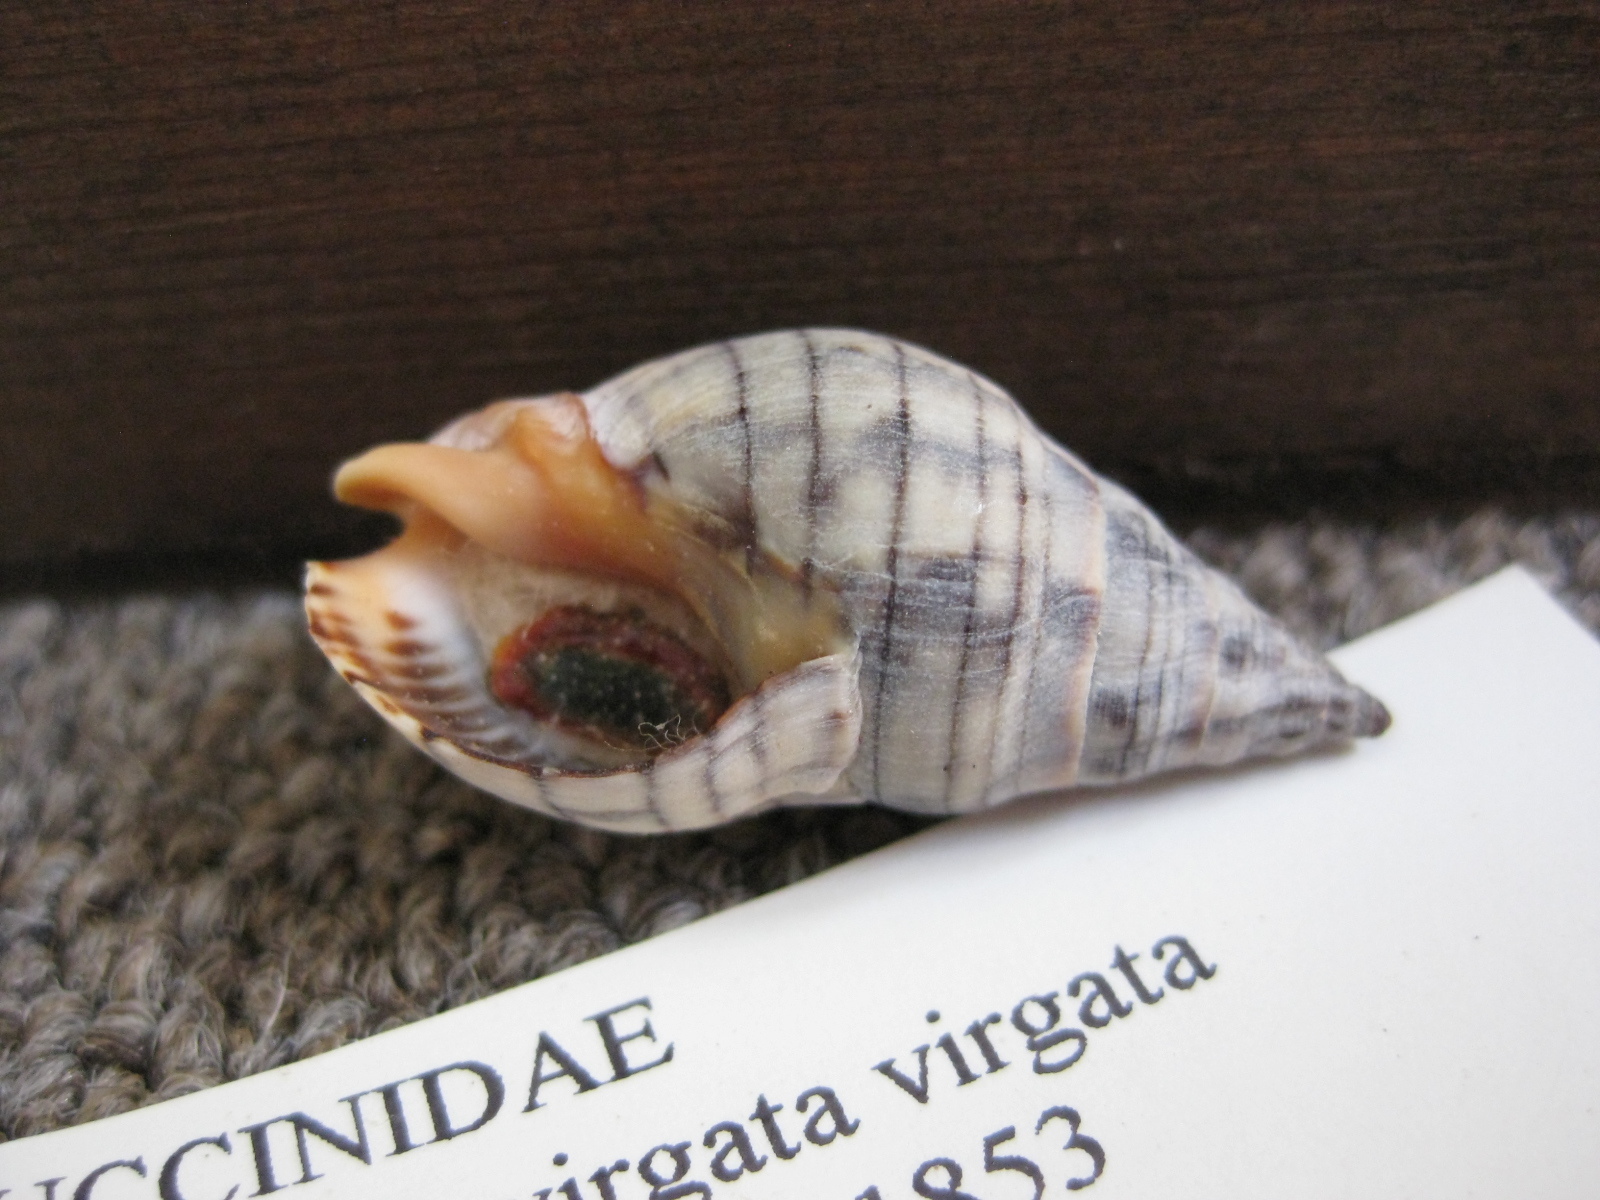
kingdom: Animalia
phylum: Mollusca
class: Gastropoda
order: Neogastropoda
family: Cominellidae
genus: Cominella
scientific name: Cominella virgata
